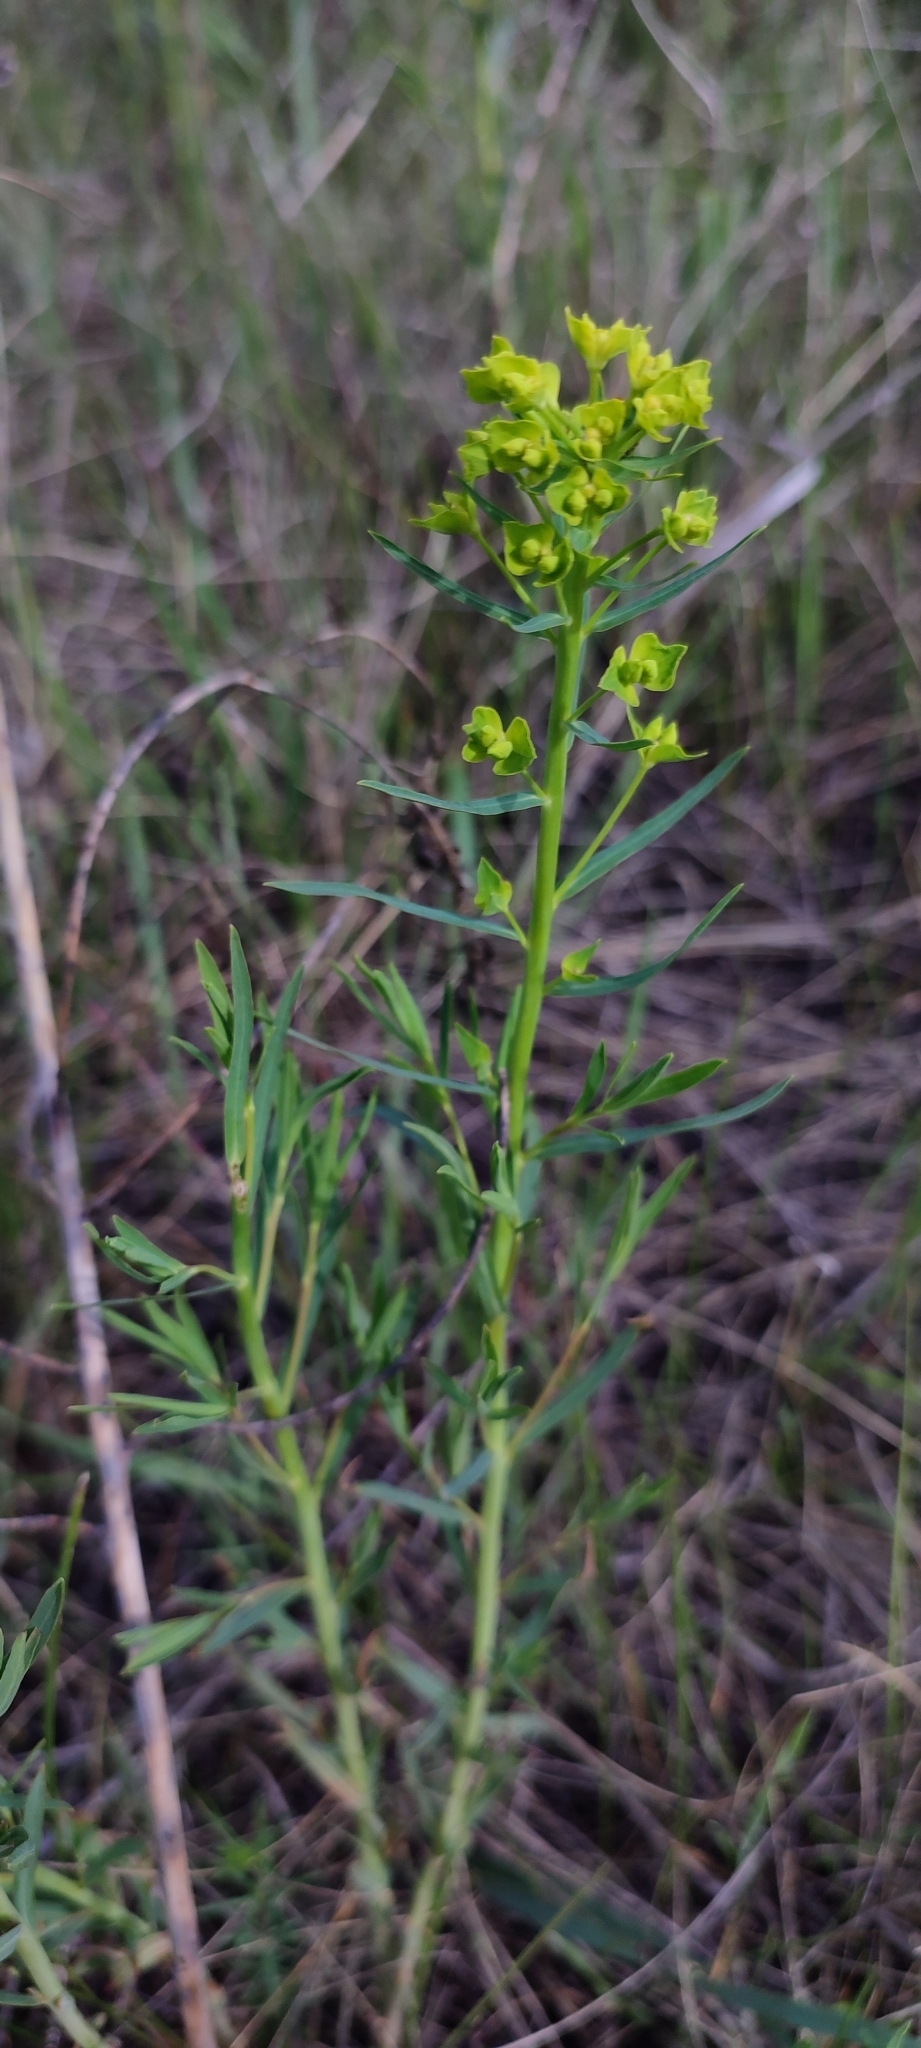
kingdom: Plantae
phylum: Tracheophyta
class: Magnoliopsida
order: Malpighiales
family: Euphorbiaceae
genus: Euphorbia
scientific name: Euphorbia virgata
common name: Leafy spurge
